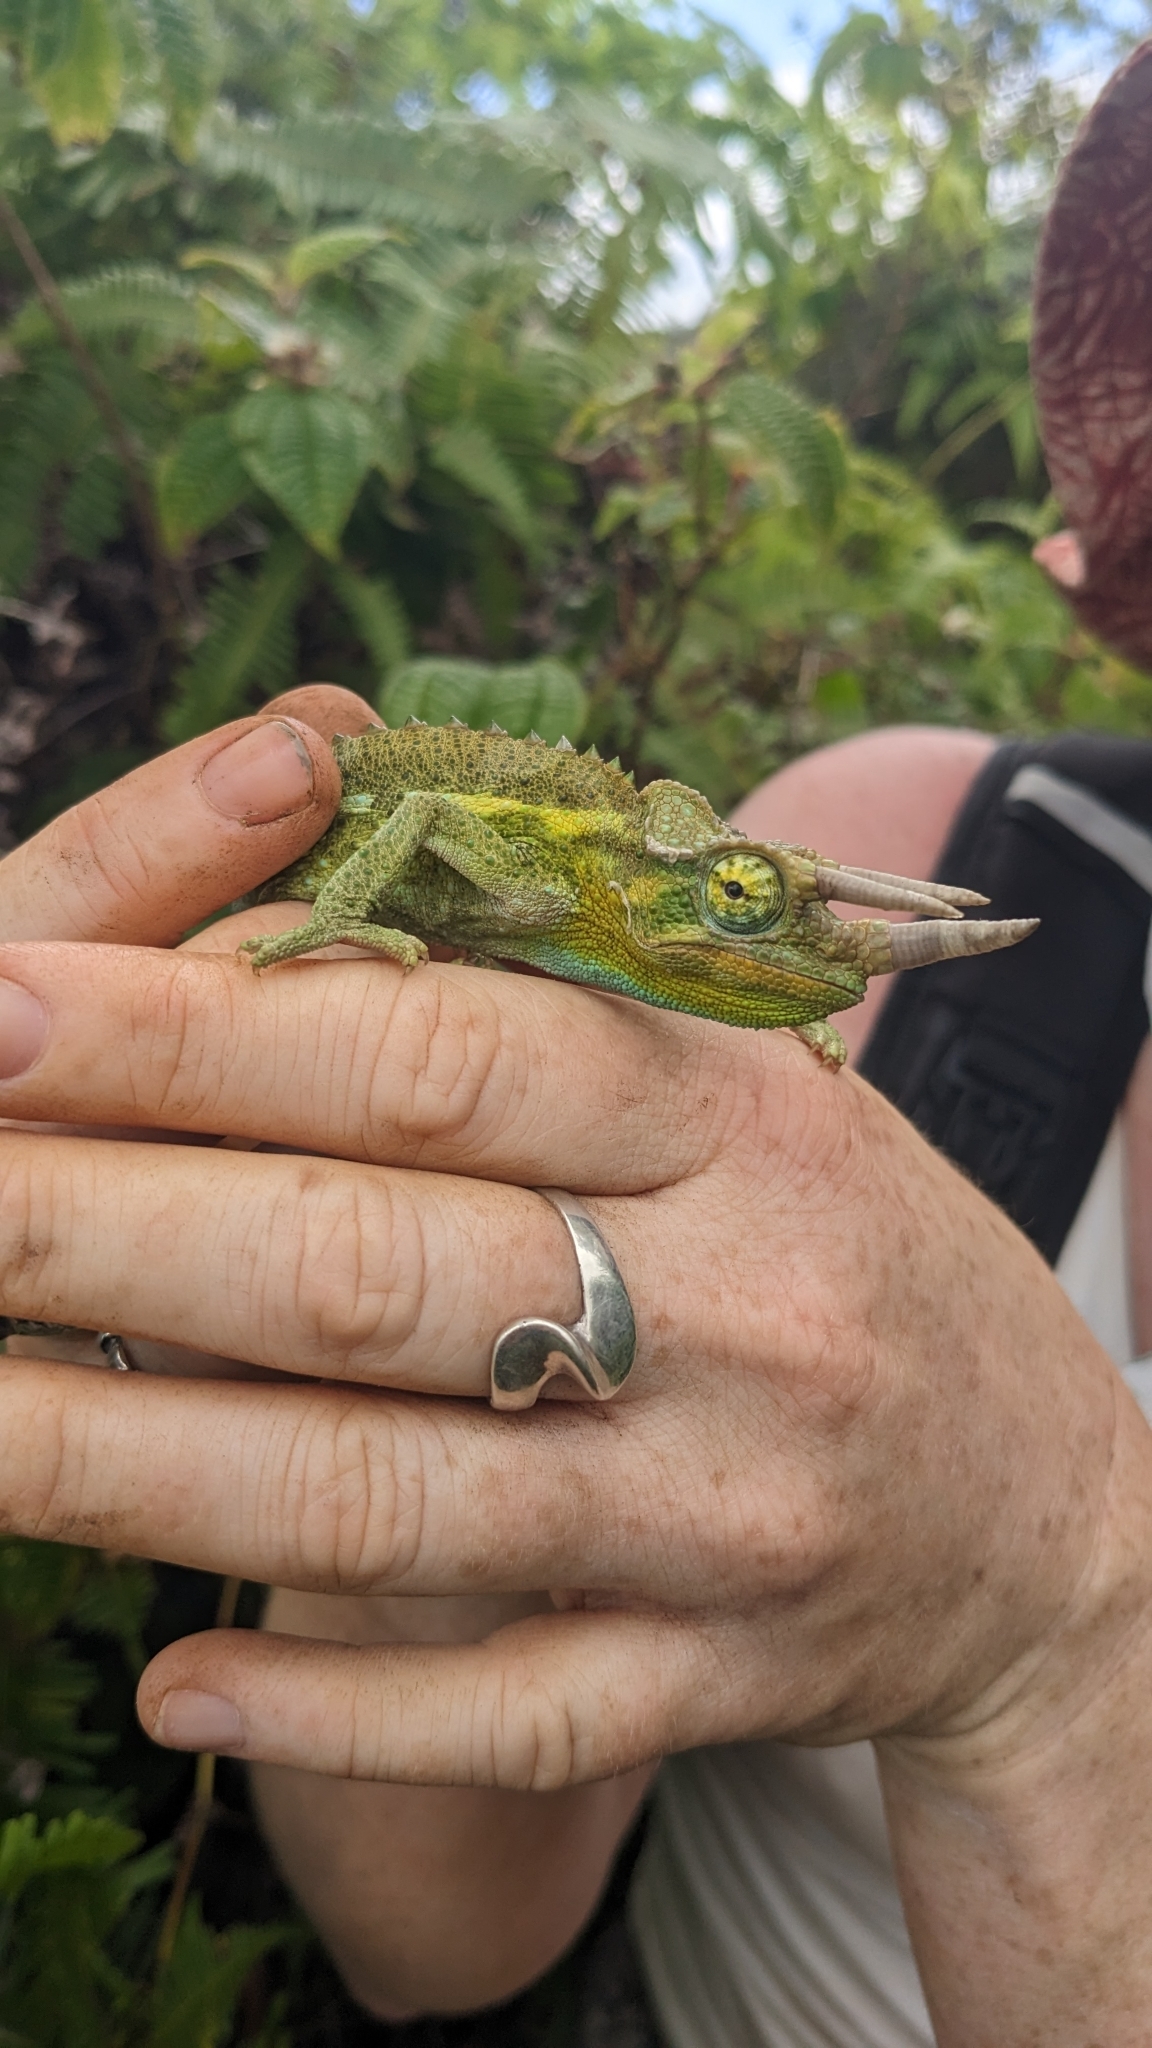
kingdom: Animalia
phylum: Chordata
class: Squamata
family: Chamaeleonidae
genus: Trioceros
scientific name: Trioceros jacksonii
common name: Jackson's chameleon
